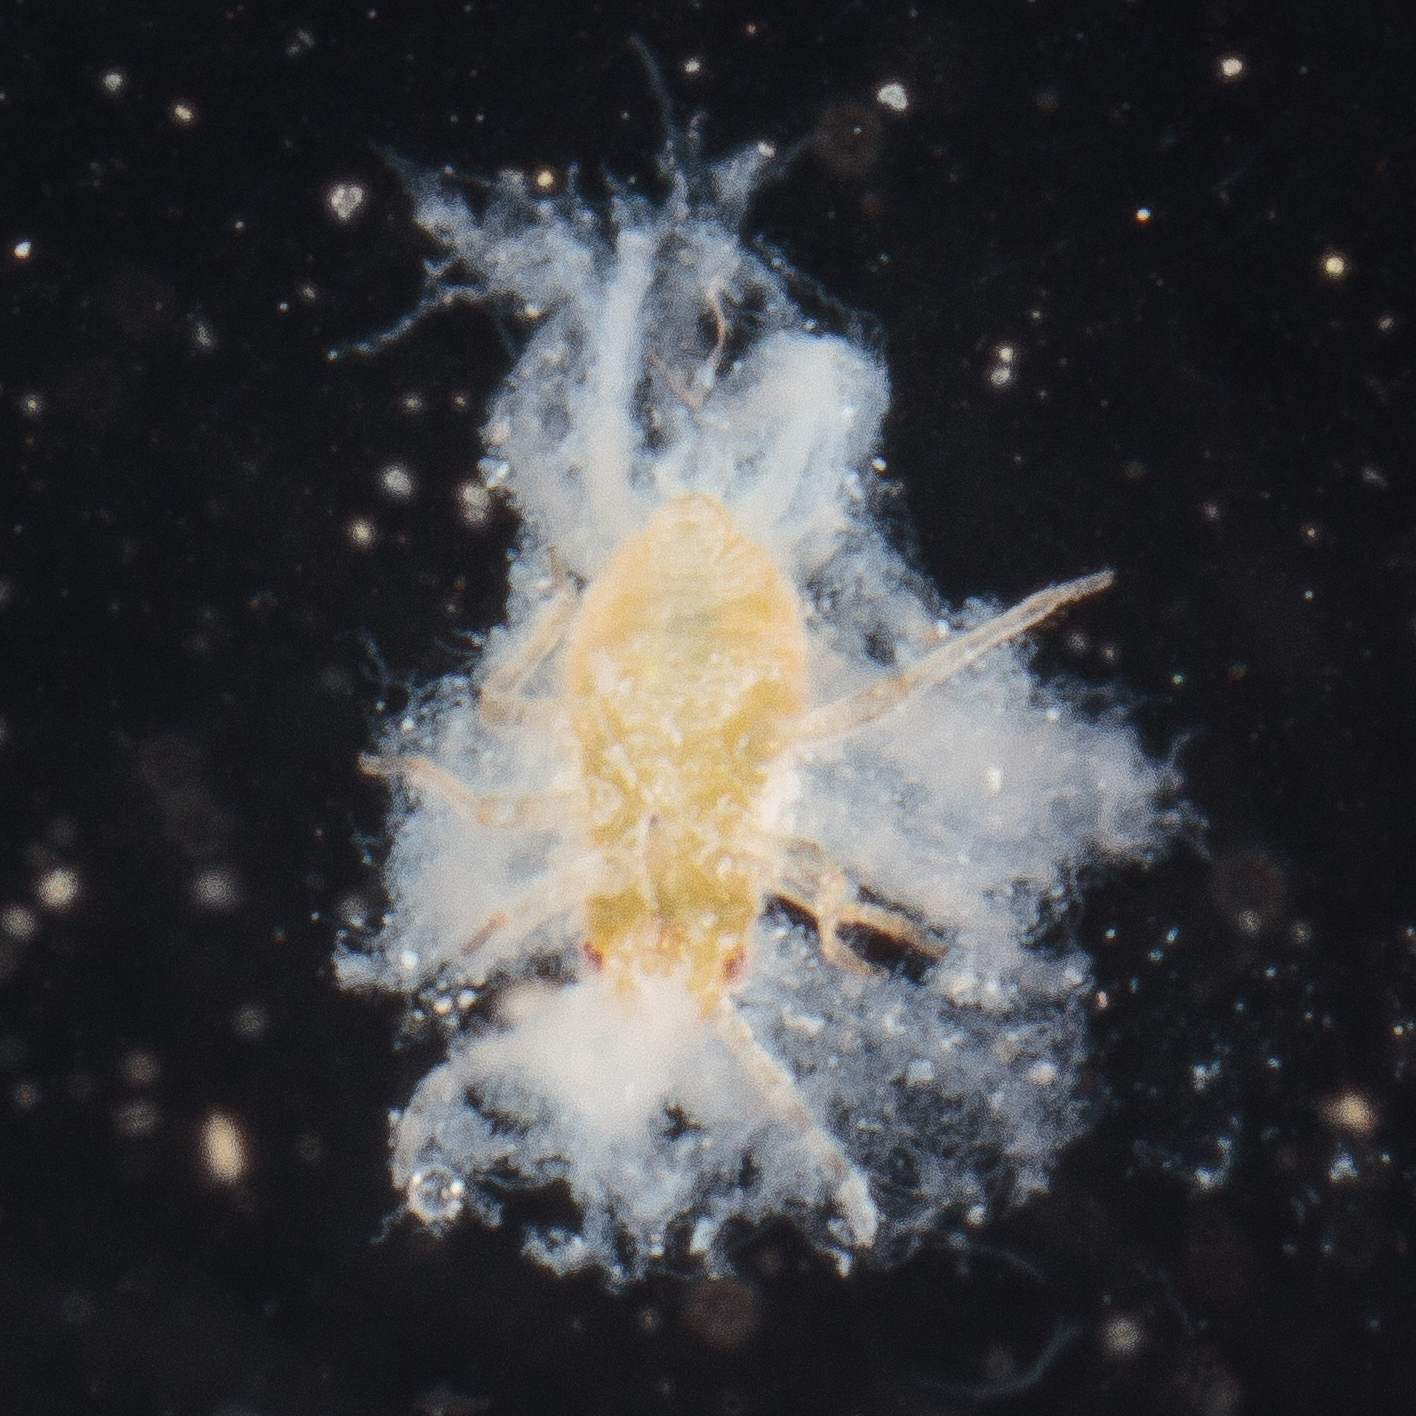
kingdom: Animalia
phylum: Arthropoda
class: Insecta
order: Hemiptera
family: Aphididae
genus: Shivaphis
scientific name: Shivaphis celti
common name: Asian wooly hackberry aphid
